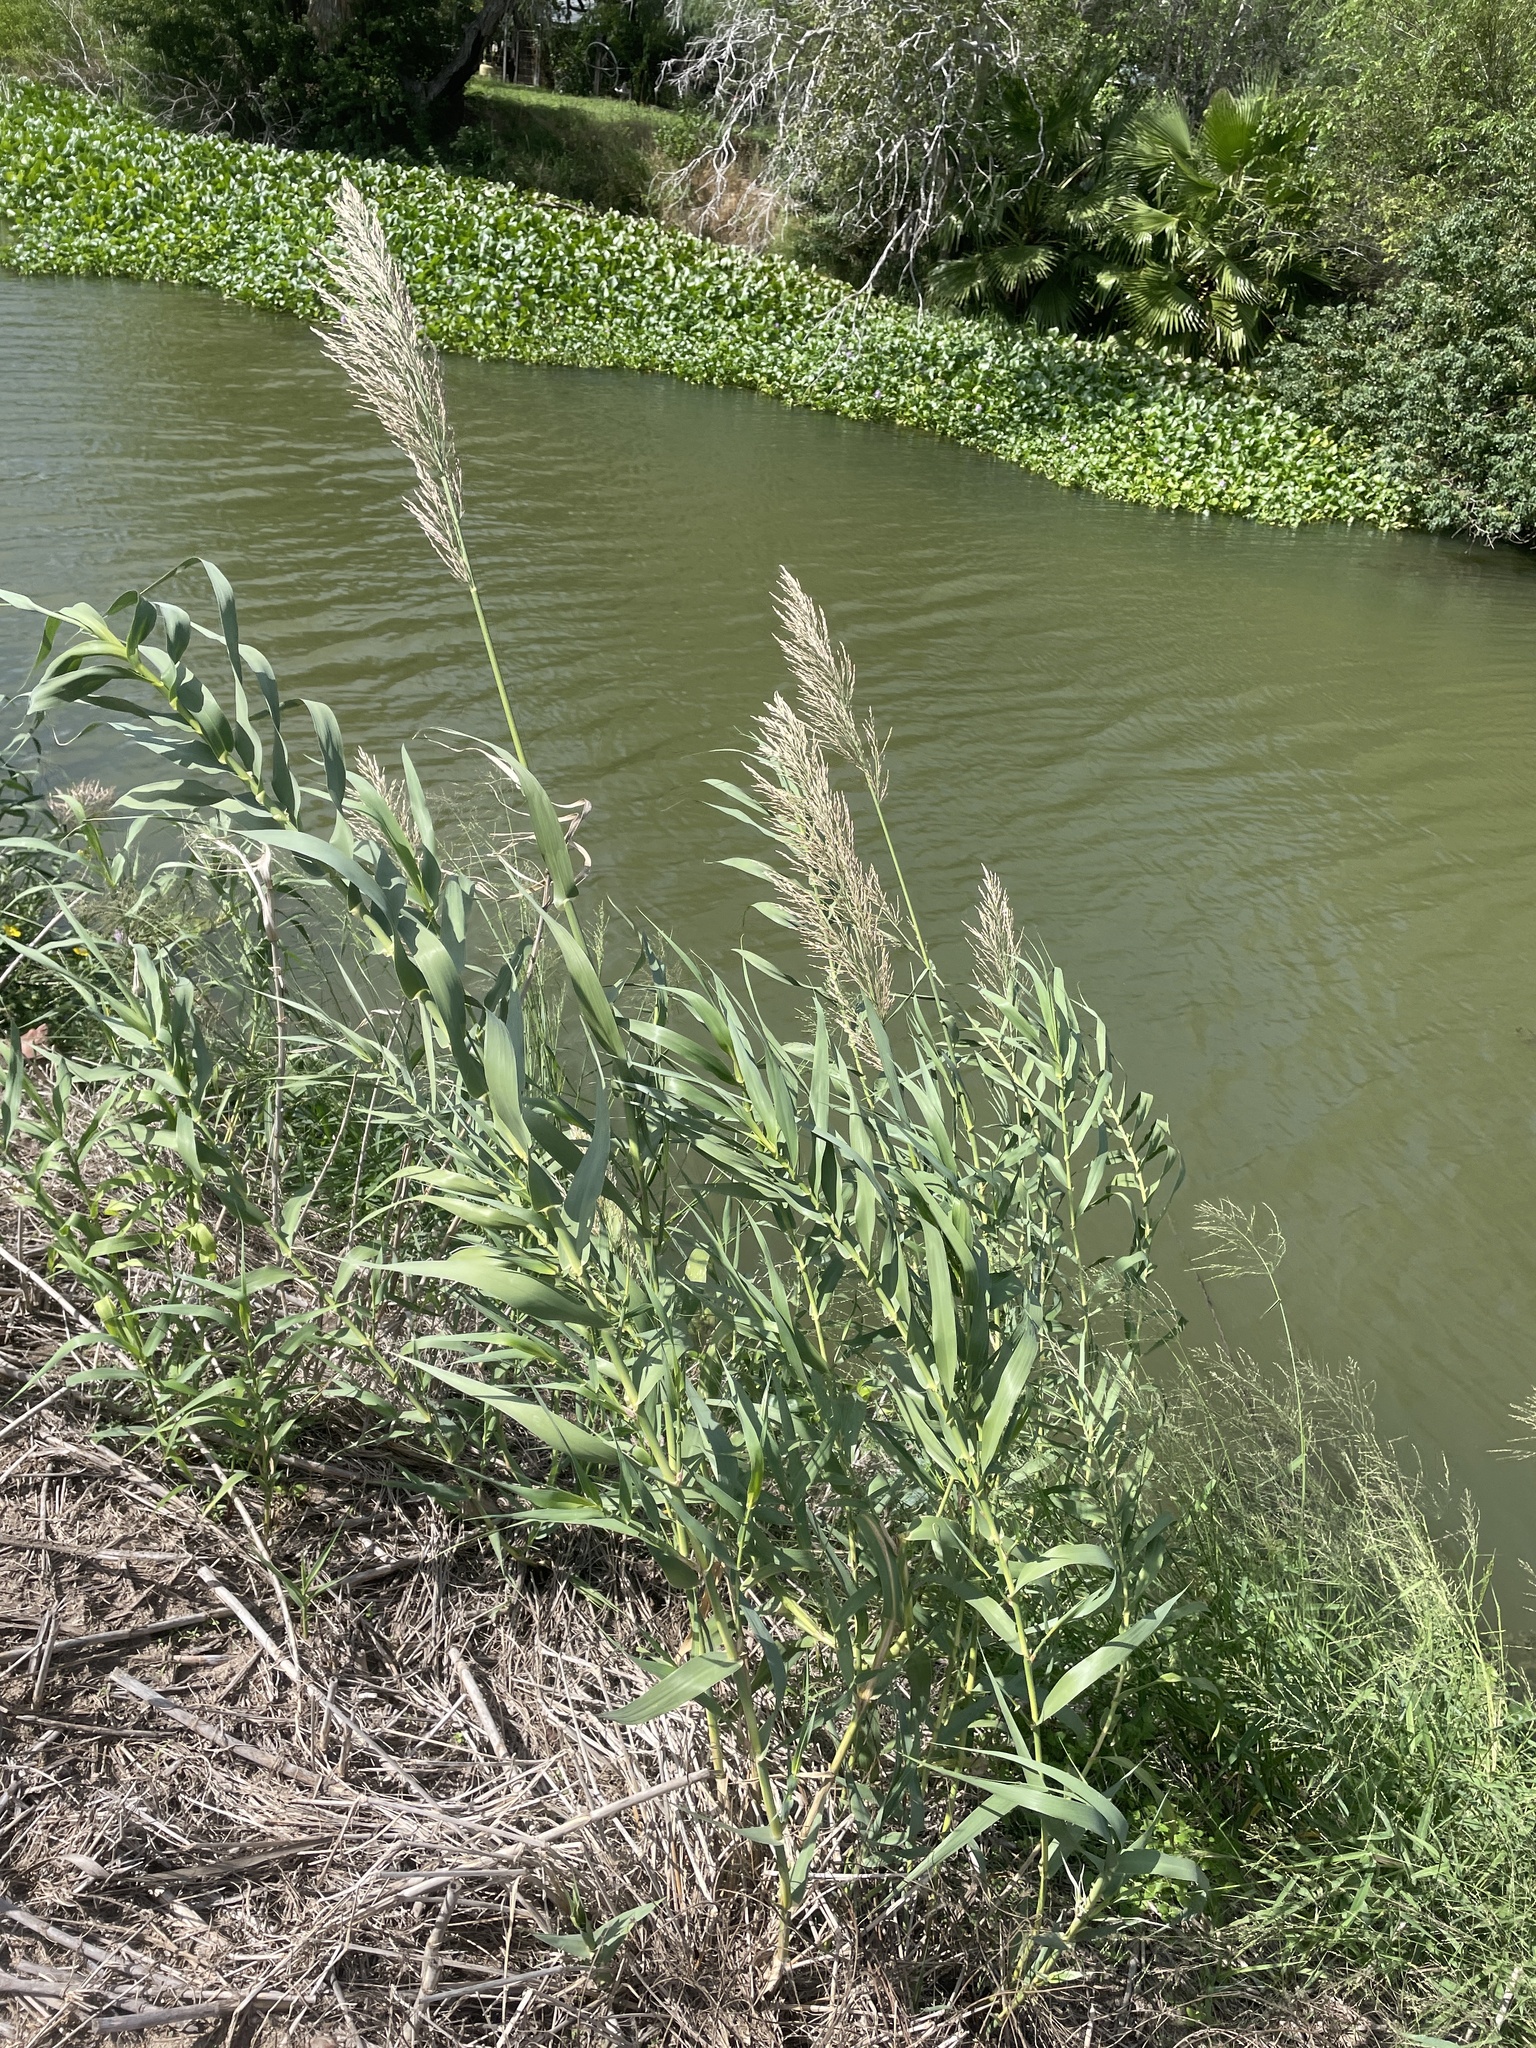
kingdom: Plantae
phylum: Tracheophyta
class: Liliopsida
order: Poales
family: Poaceae
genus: Arundo
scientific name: Arundo donax
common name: Giant reed
